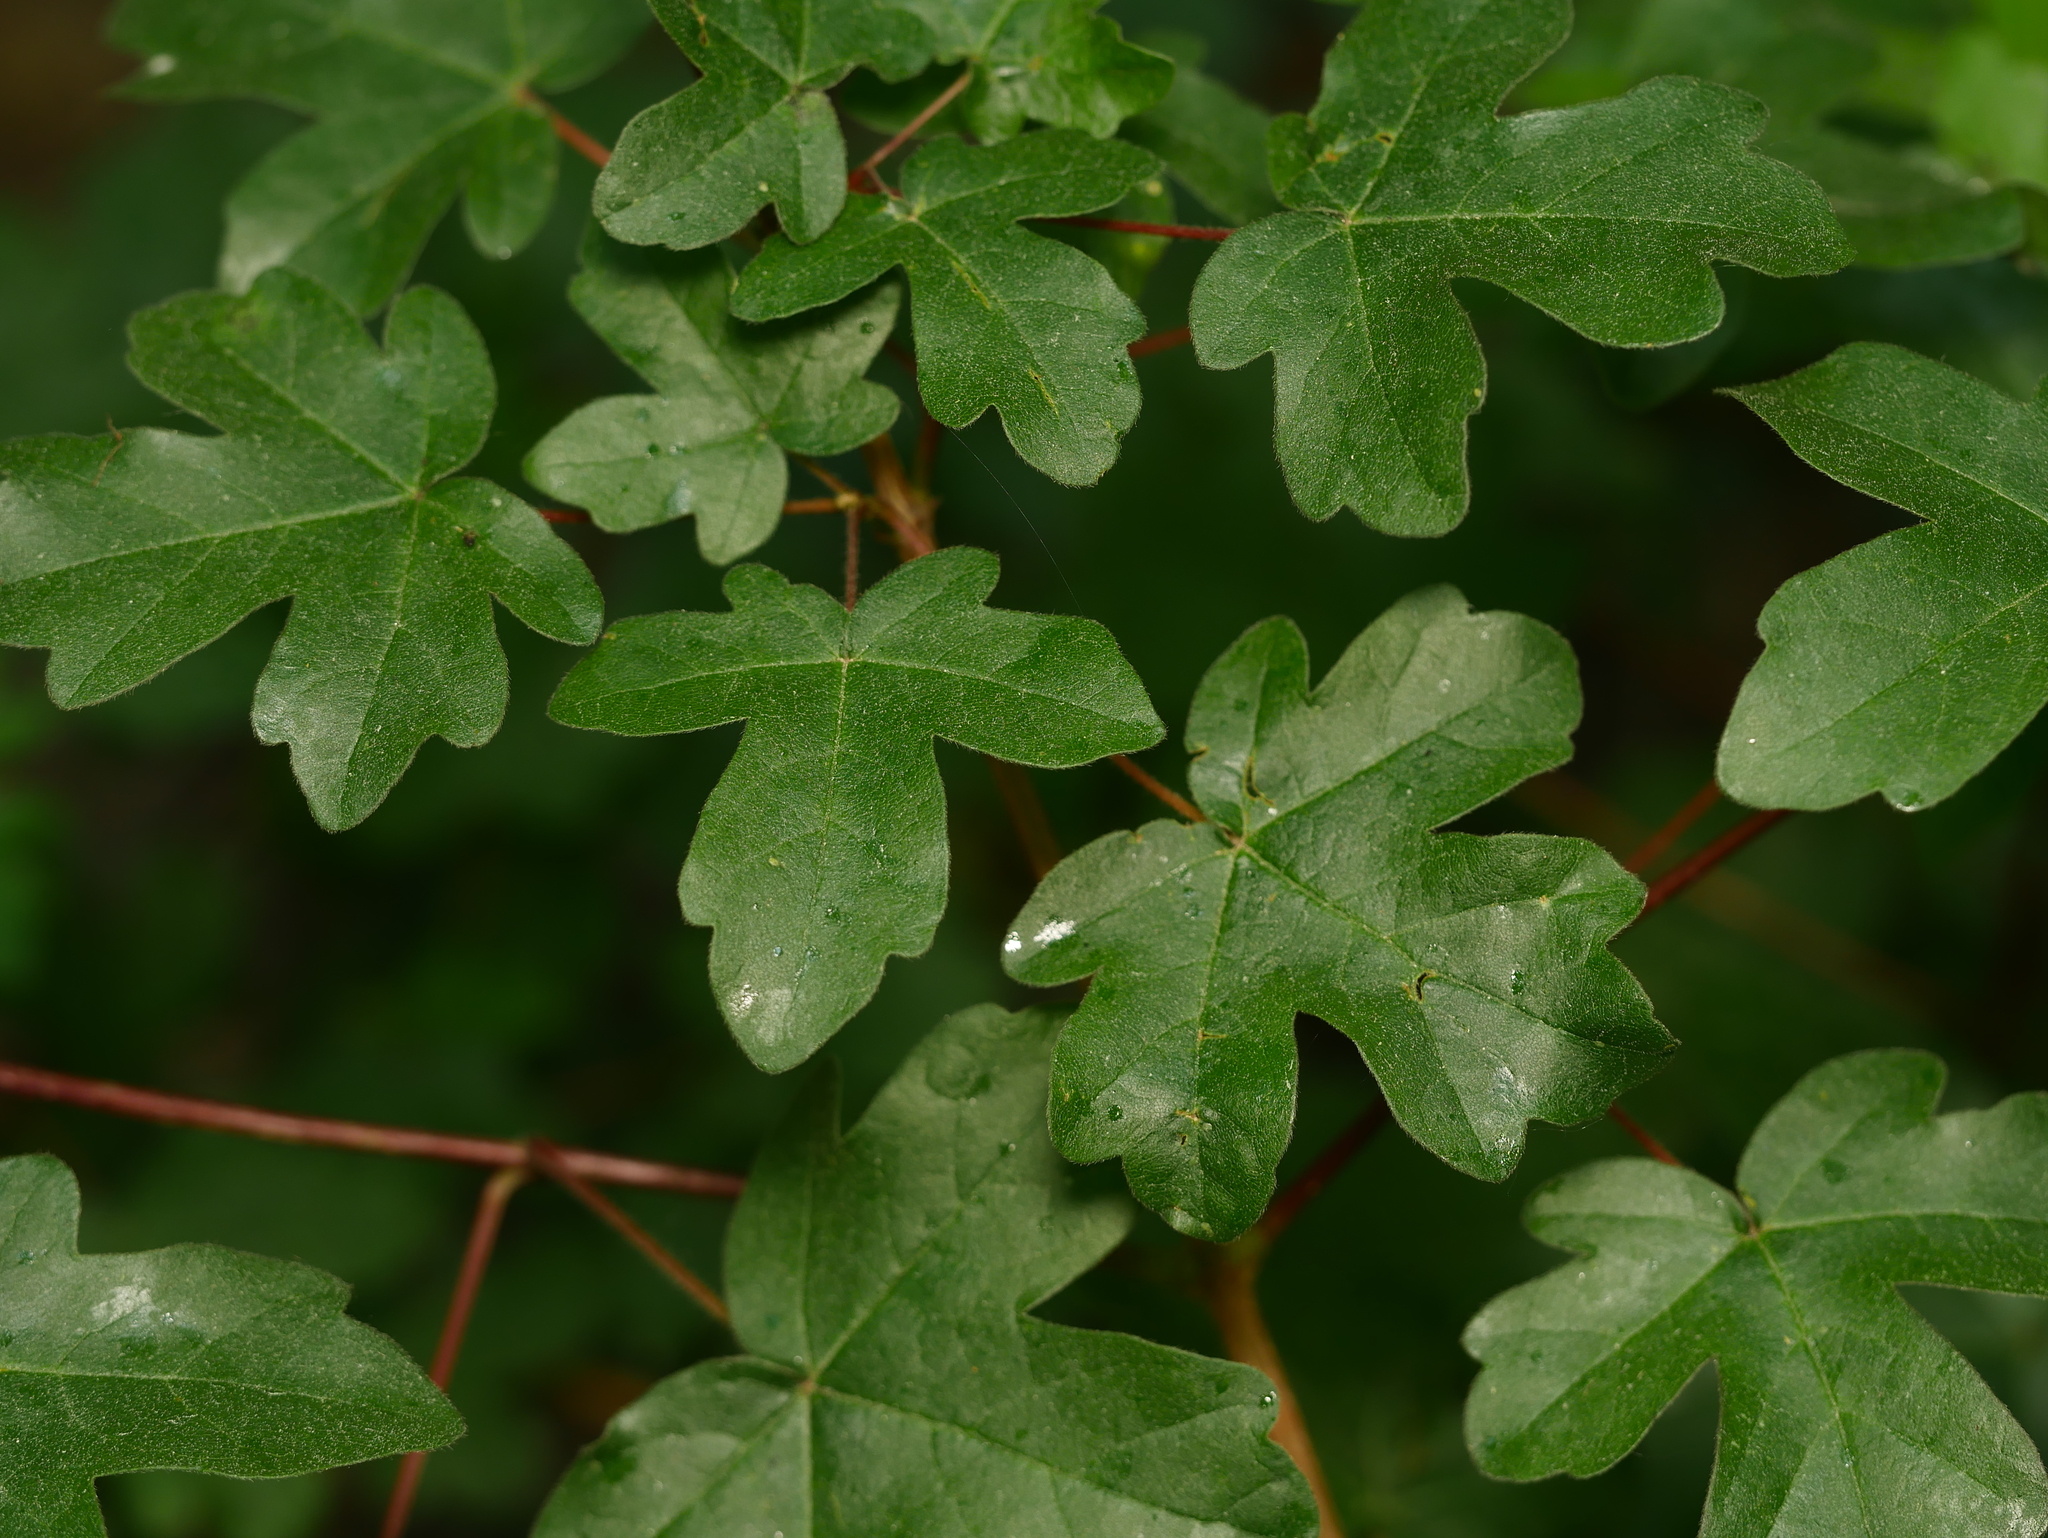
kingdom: Plantae
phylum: Tracheophyta
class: Magnoliopsida
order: Sapindales
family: Sapindaceae
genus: Acer
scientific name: Acer campestre
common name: Field maple
